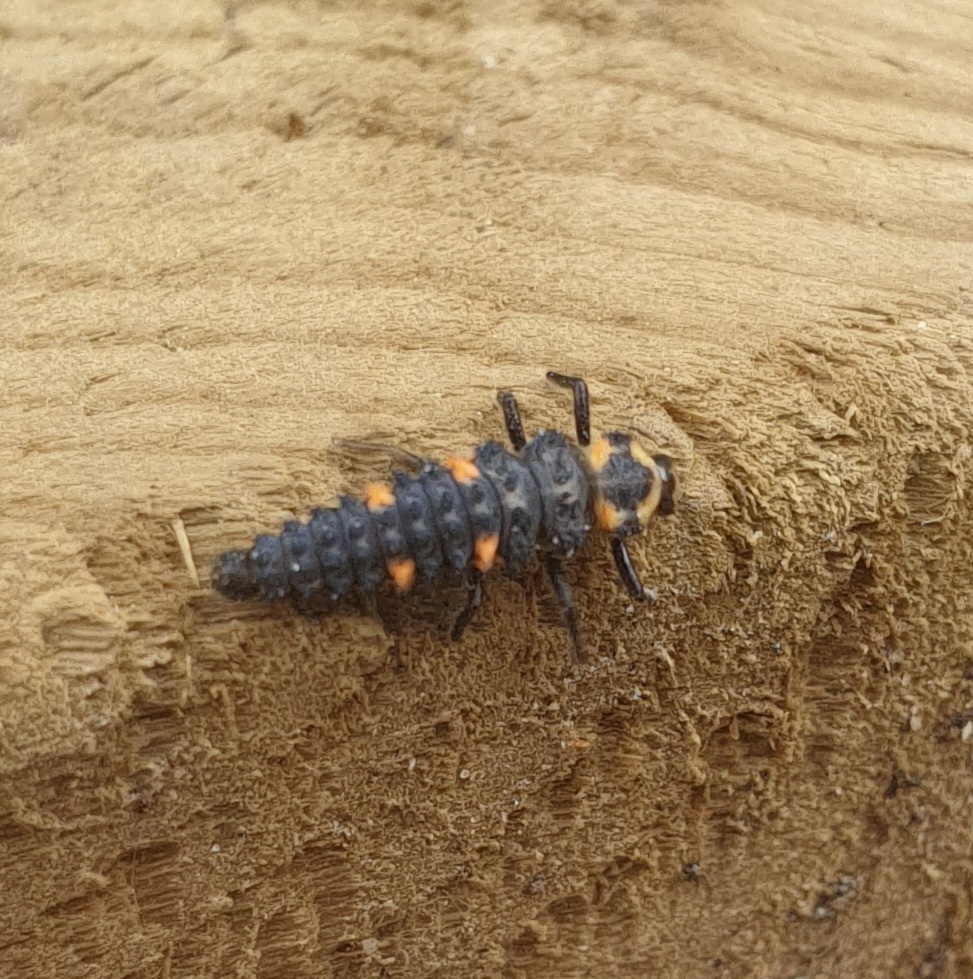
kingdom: Animalia
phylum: Arthropoda
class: Insecta
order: Coleoptera
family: Coccinellidae
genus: Coccinella
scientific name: Coccinella septempunctata
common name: Sevenspotted lady beetle
